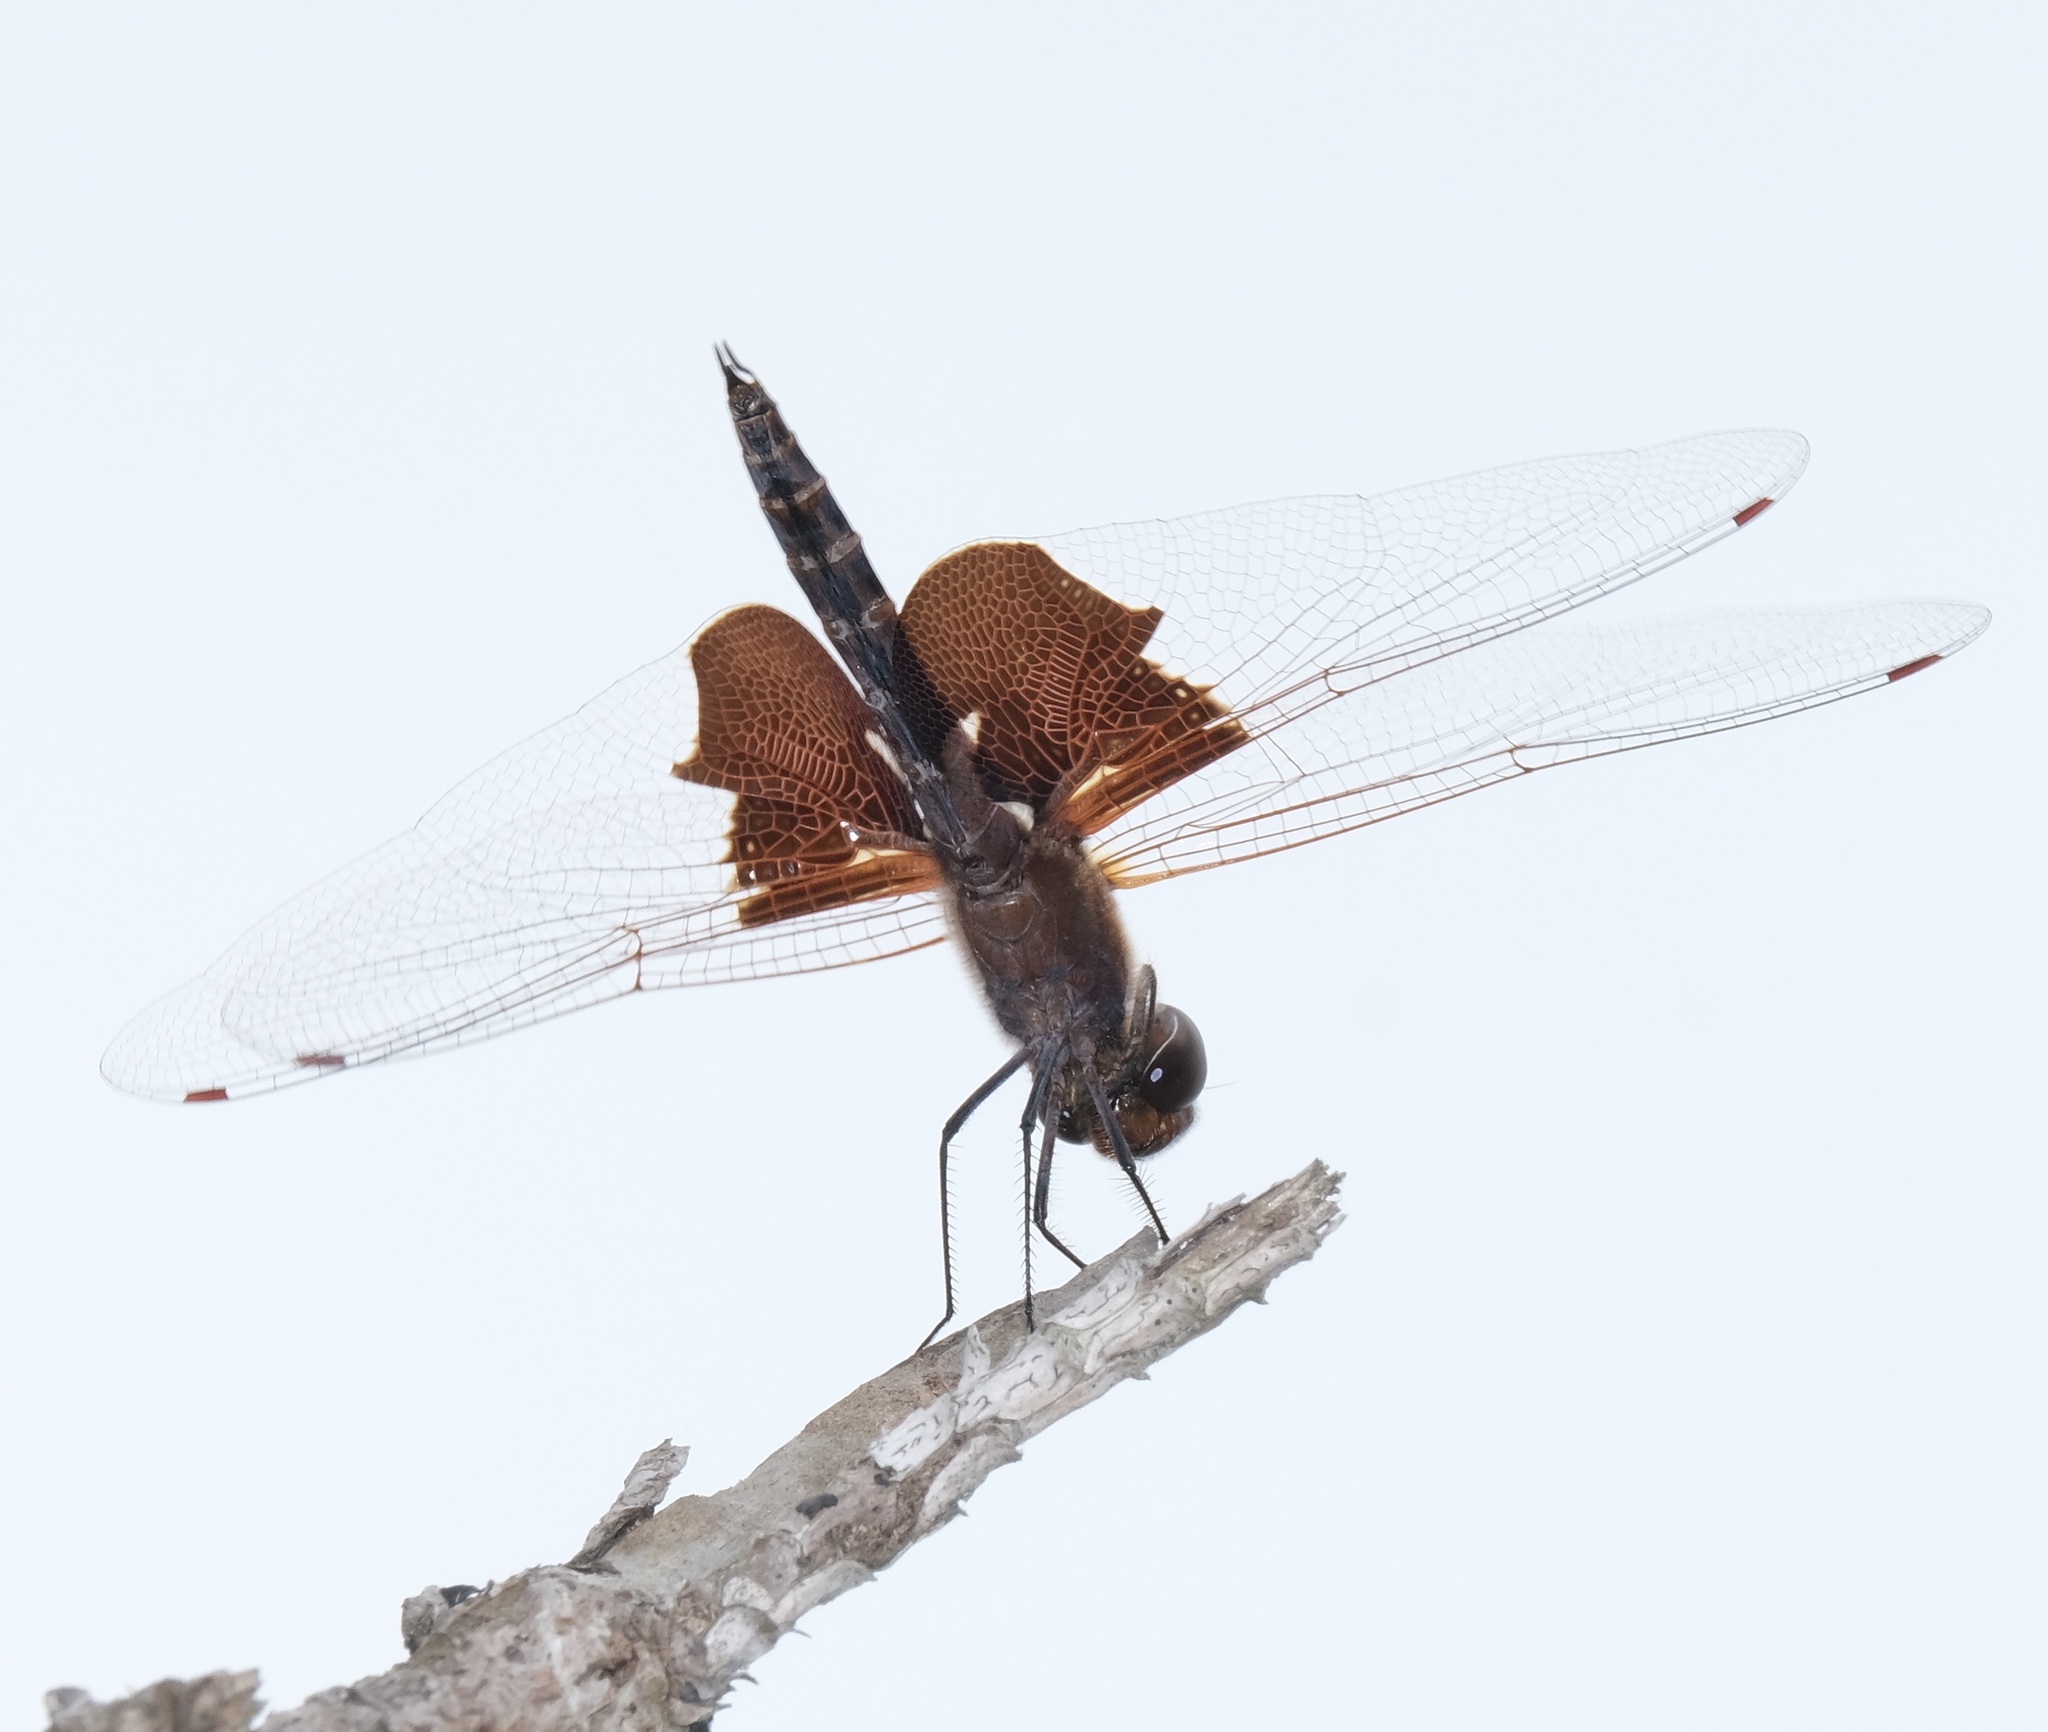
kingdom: Animalia
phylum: Arthropoda
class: Insecta
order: Odonata
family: Libellulidae
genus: Tramea
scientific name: Tramea carolina
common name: Carolina saddlebags
